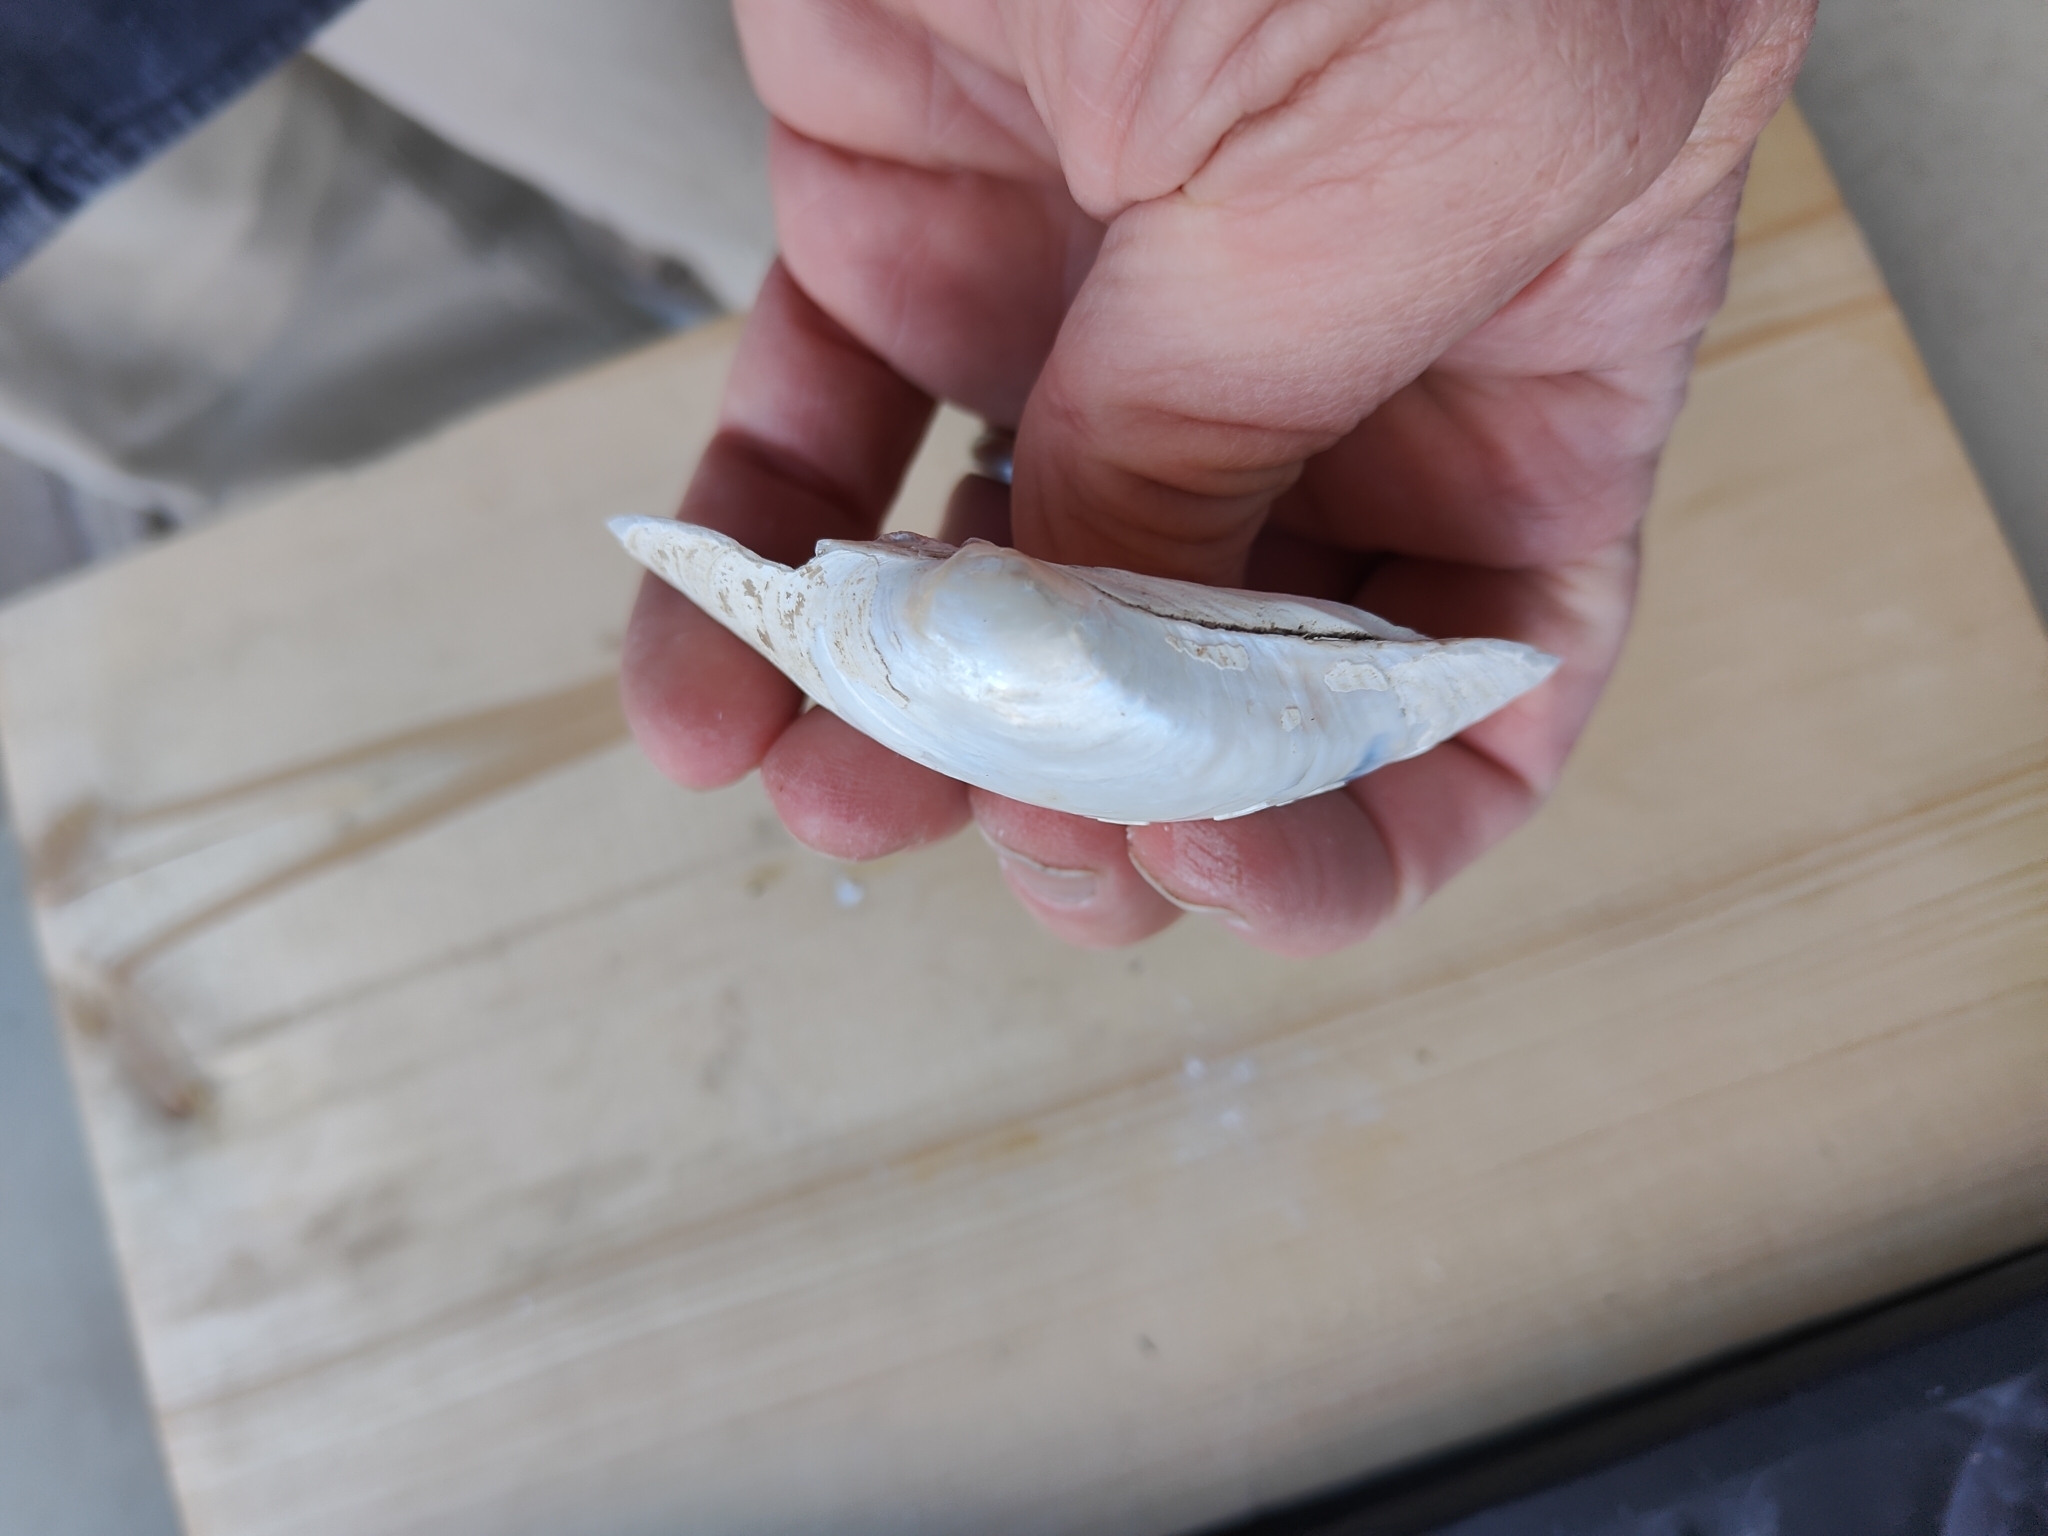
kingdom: Animalia
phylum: Mollusca
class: Bivalvia
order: Unionida
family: Unionidae
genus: Lampsilis
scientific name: Lampsilis cardium
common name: Plain pocketbook
